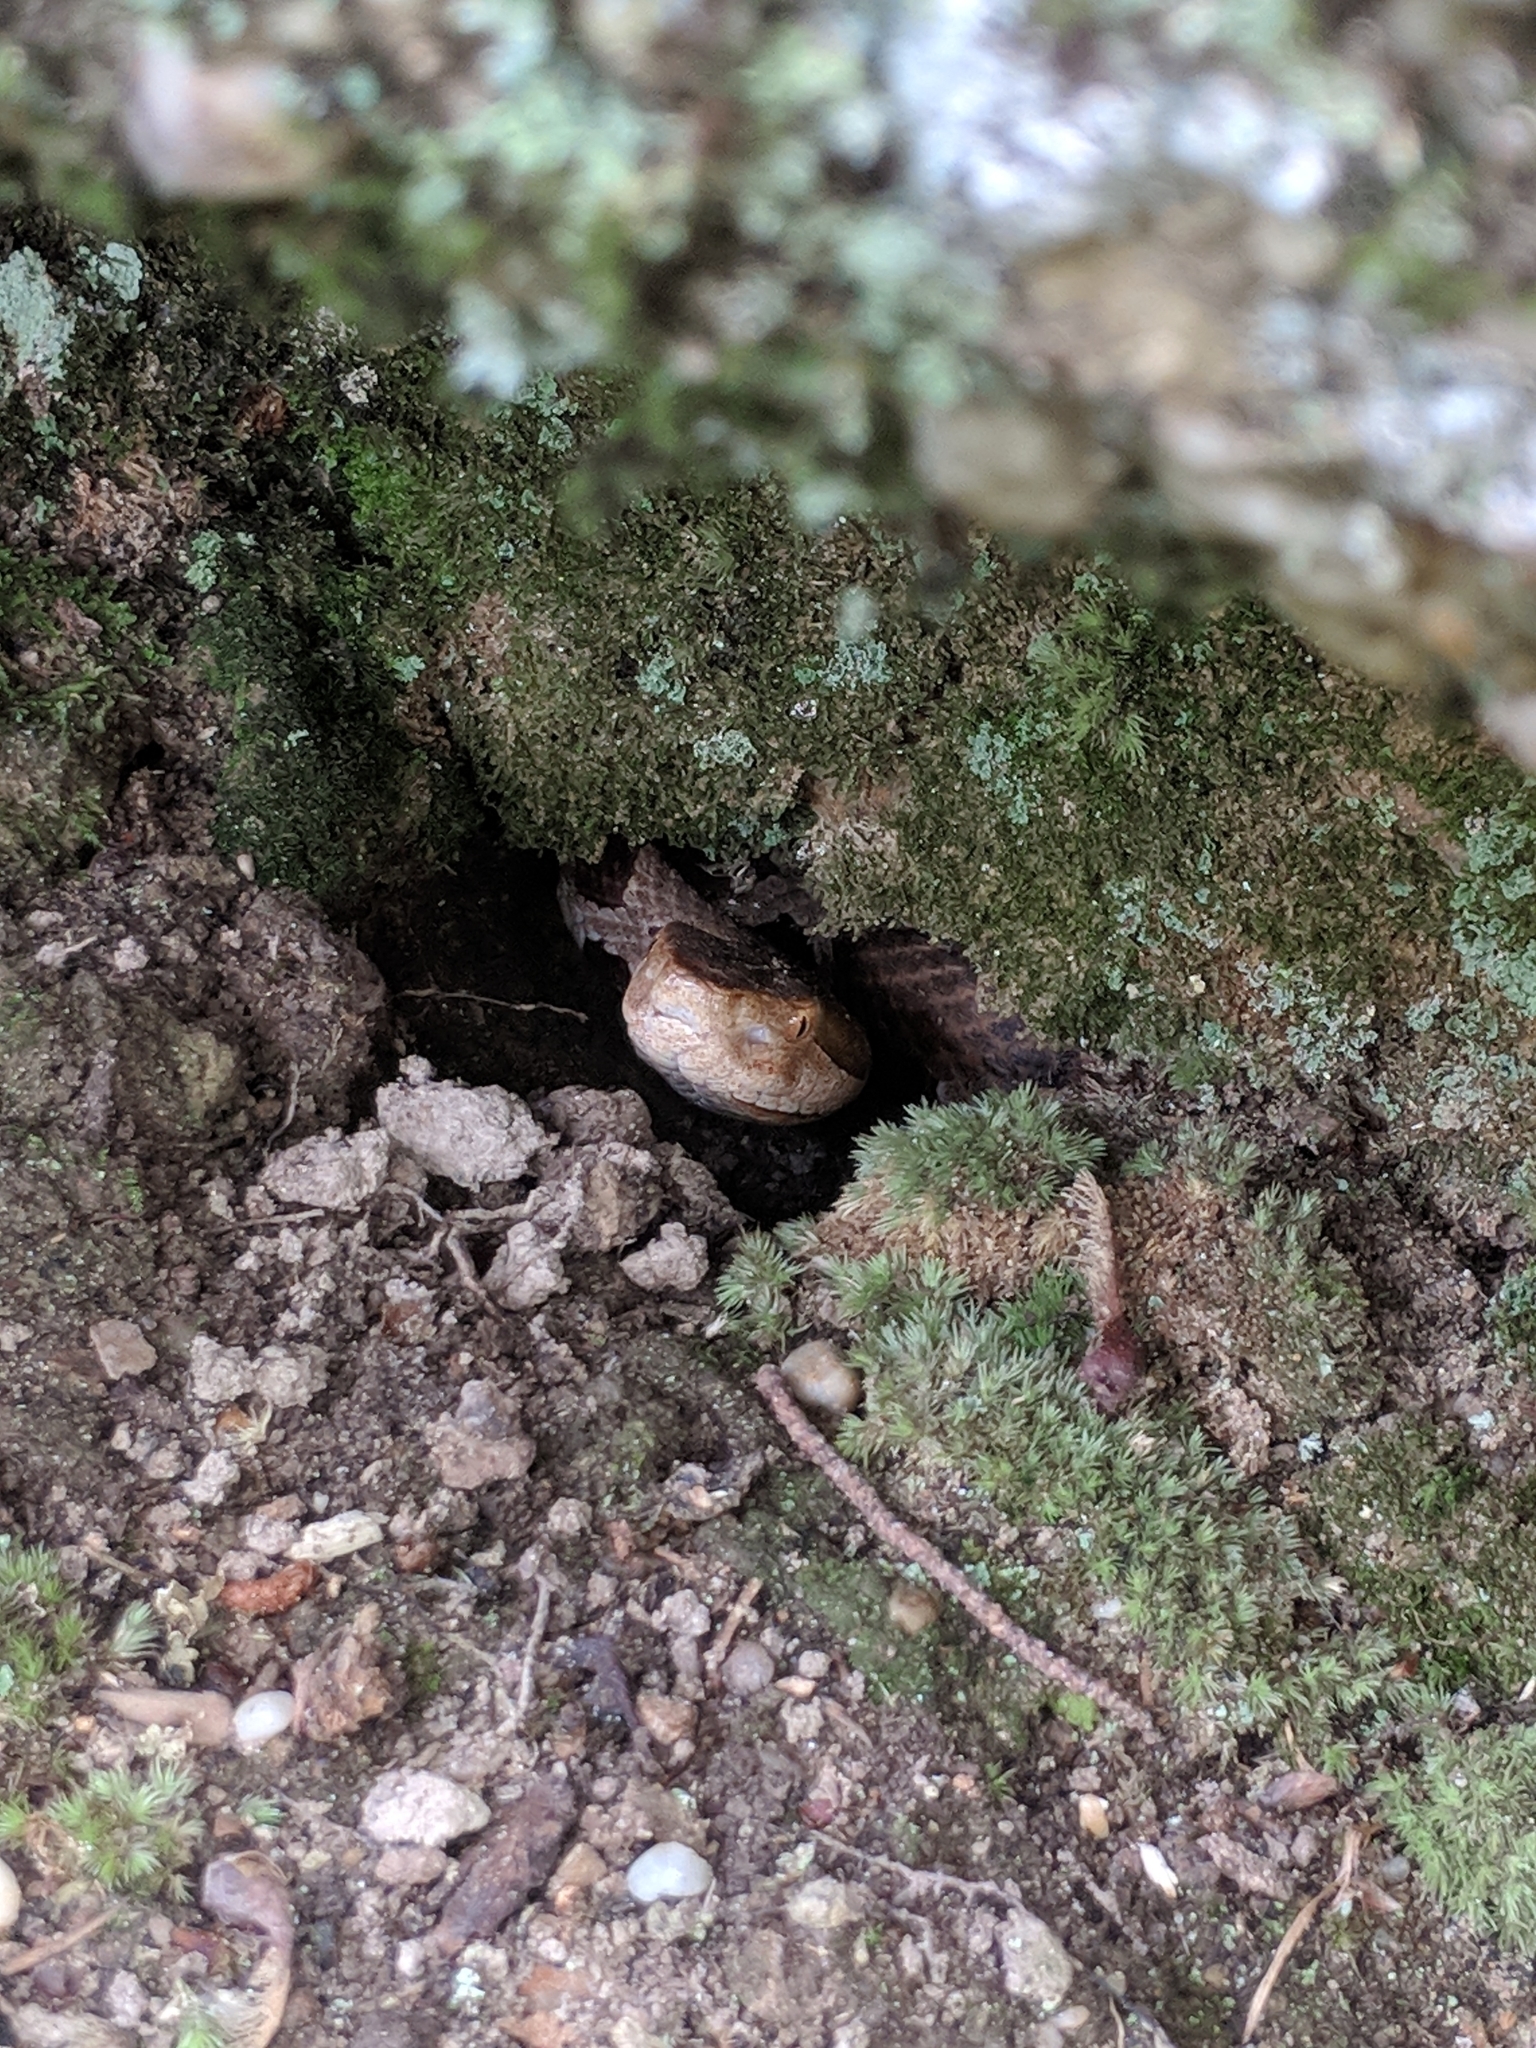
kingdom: Animalia
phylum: Chordata
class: Squamata
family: Viperidae
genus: Agkistrodon
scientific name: Agkistrodon contortrix
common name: Northern copperhead
